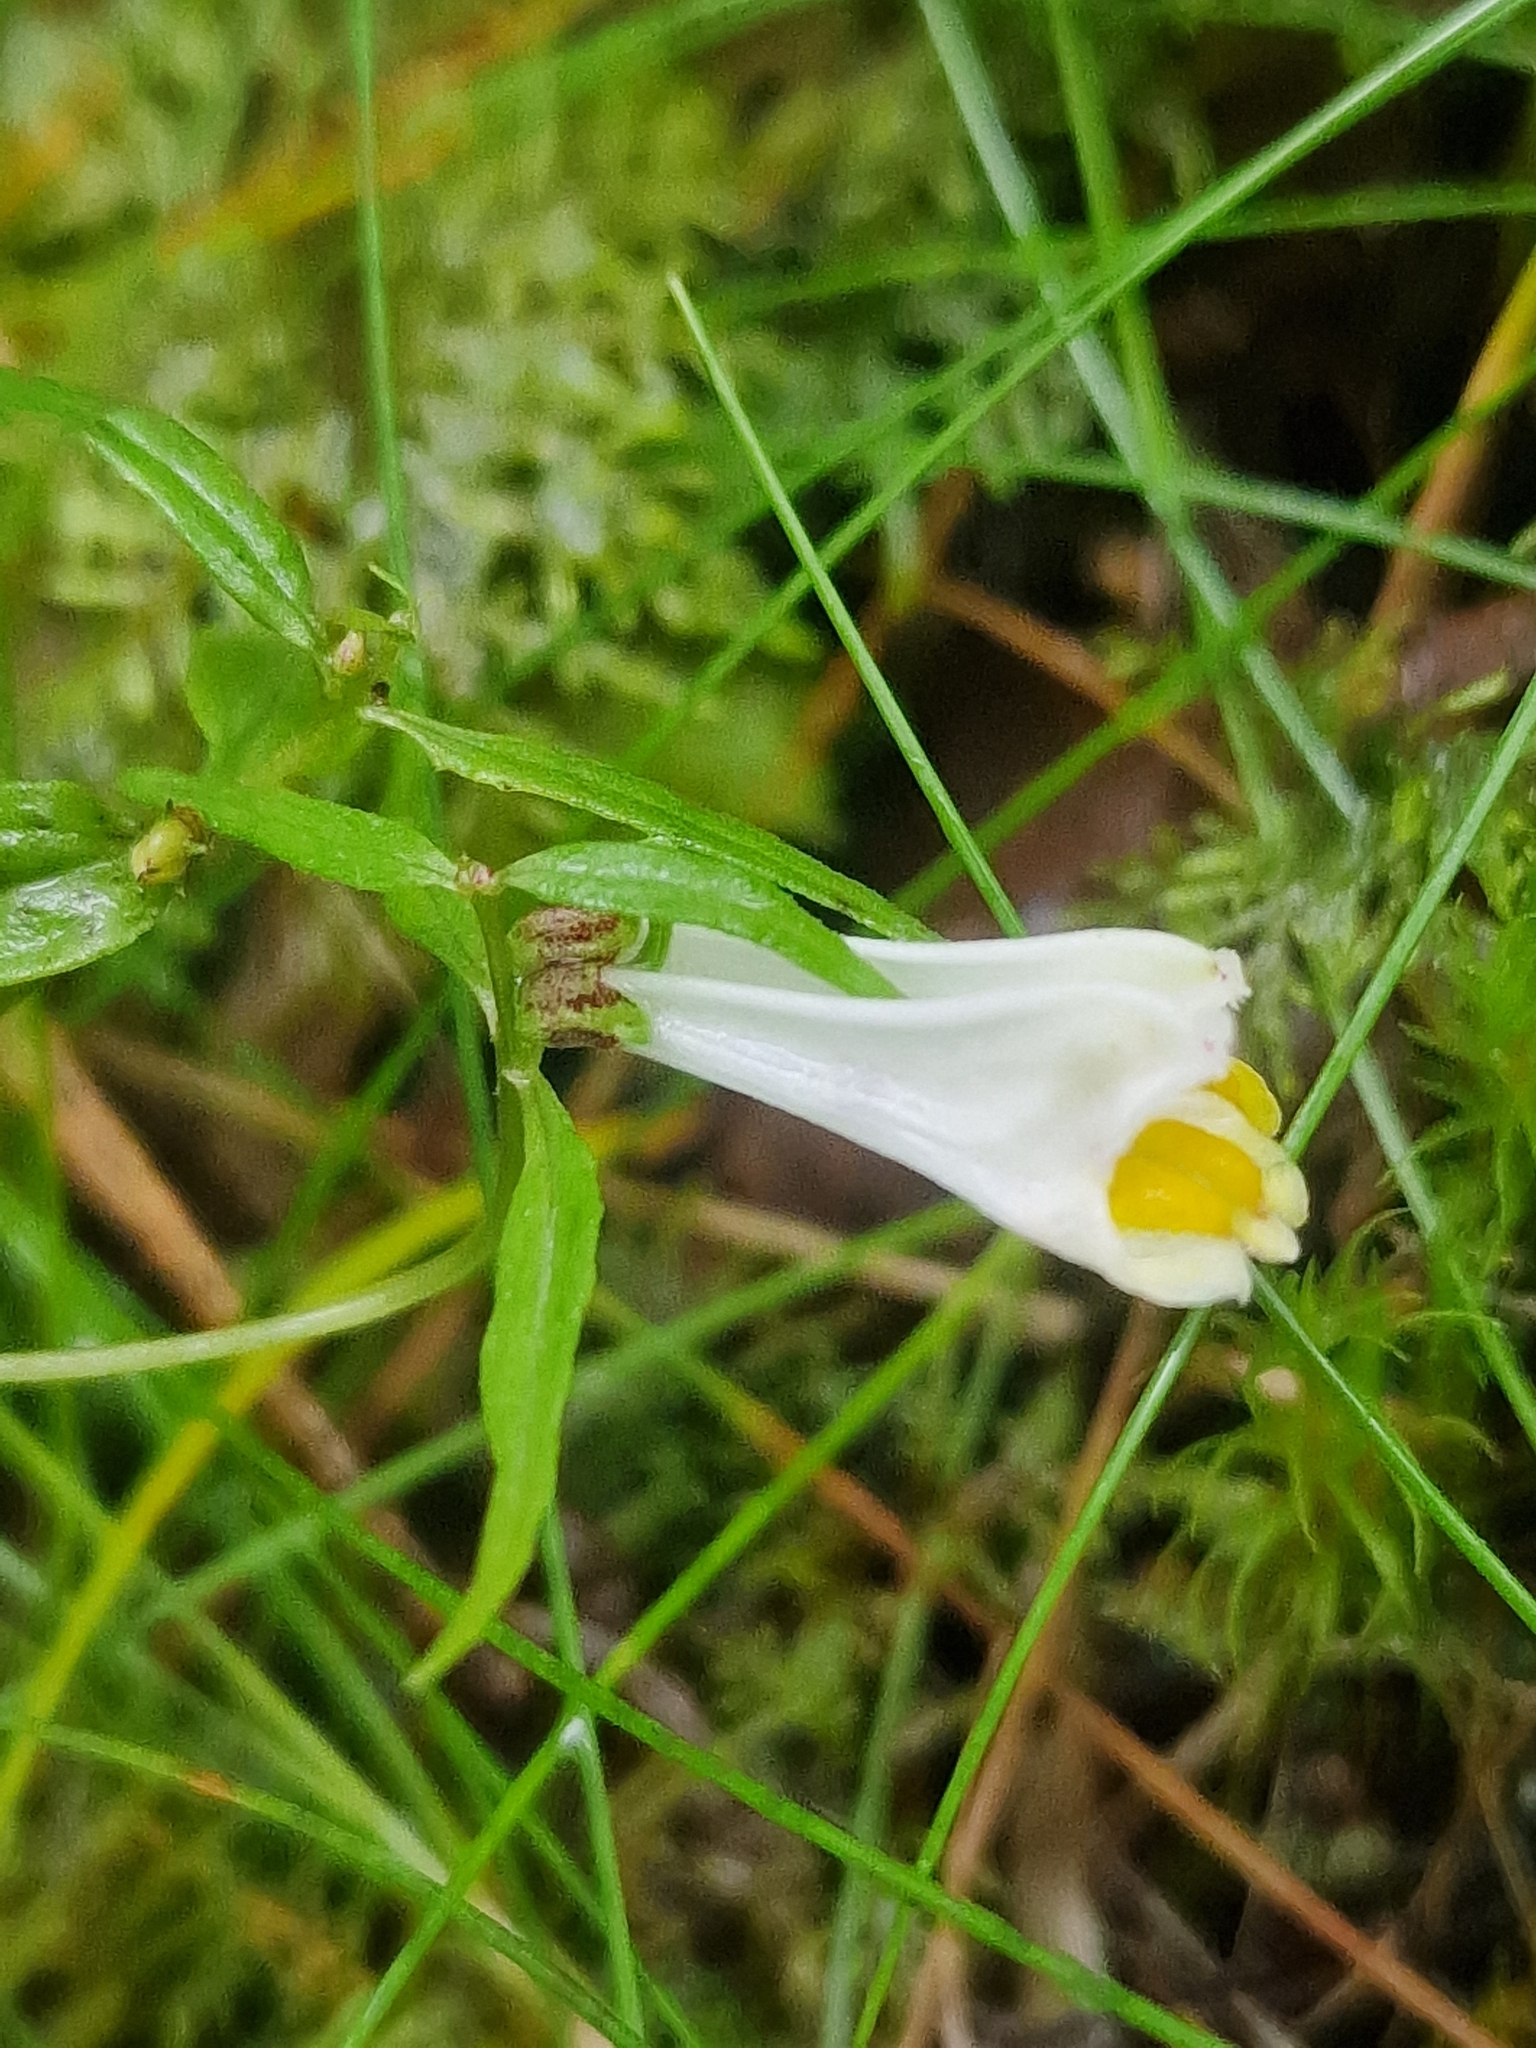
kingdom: Plantae
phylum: Tracheophyta
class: Magnoliopsida
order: Lamiales
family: Orobanchaceae
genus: Melampyrum
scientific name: Melampyrum pratense
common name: Common cow-wheat
